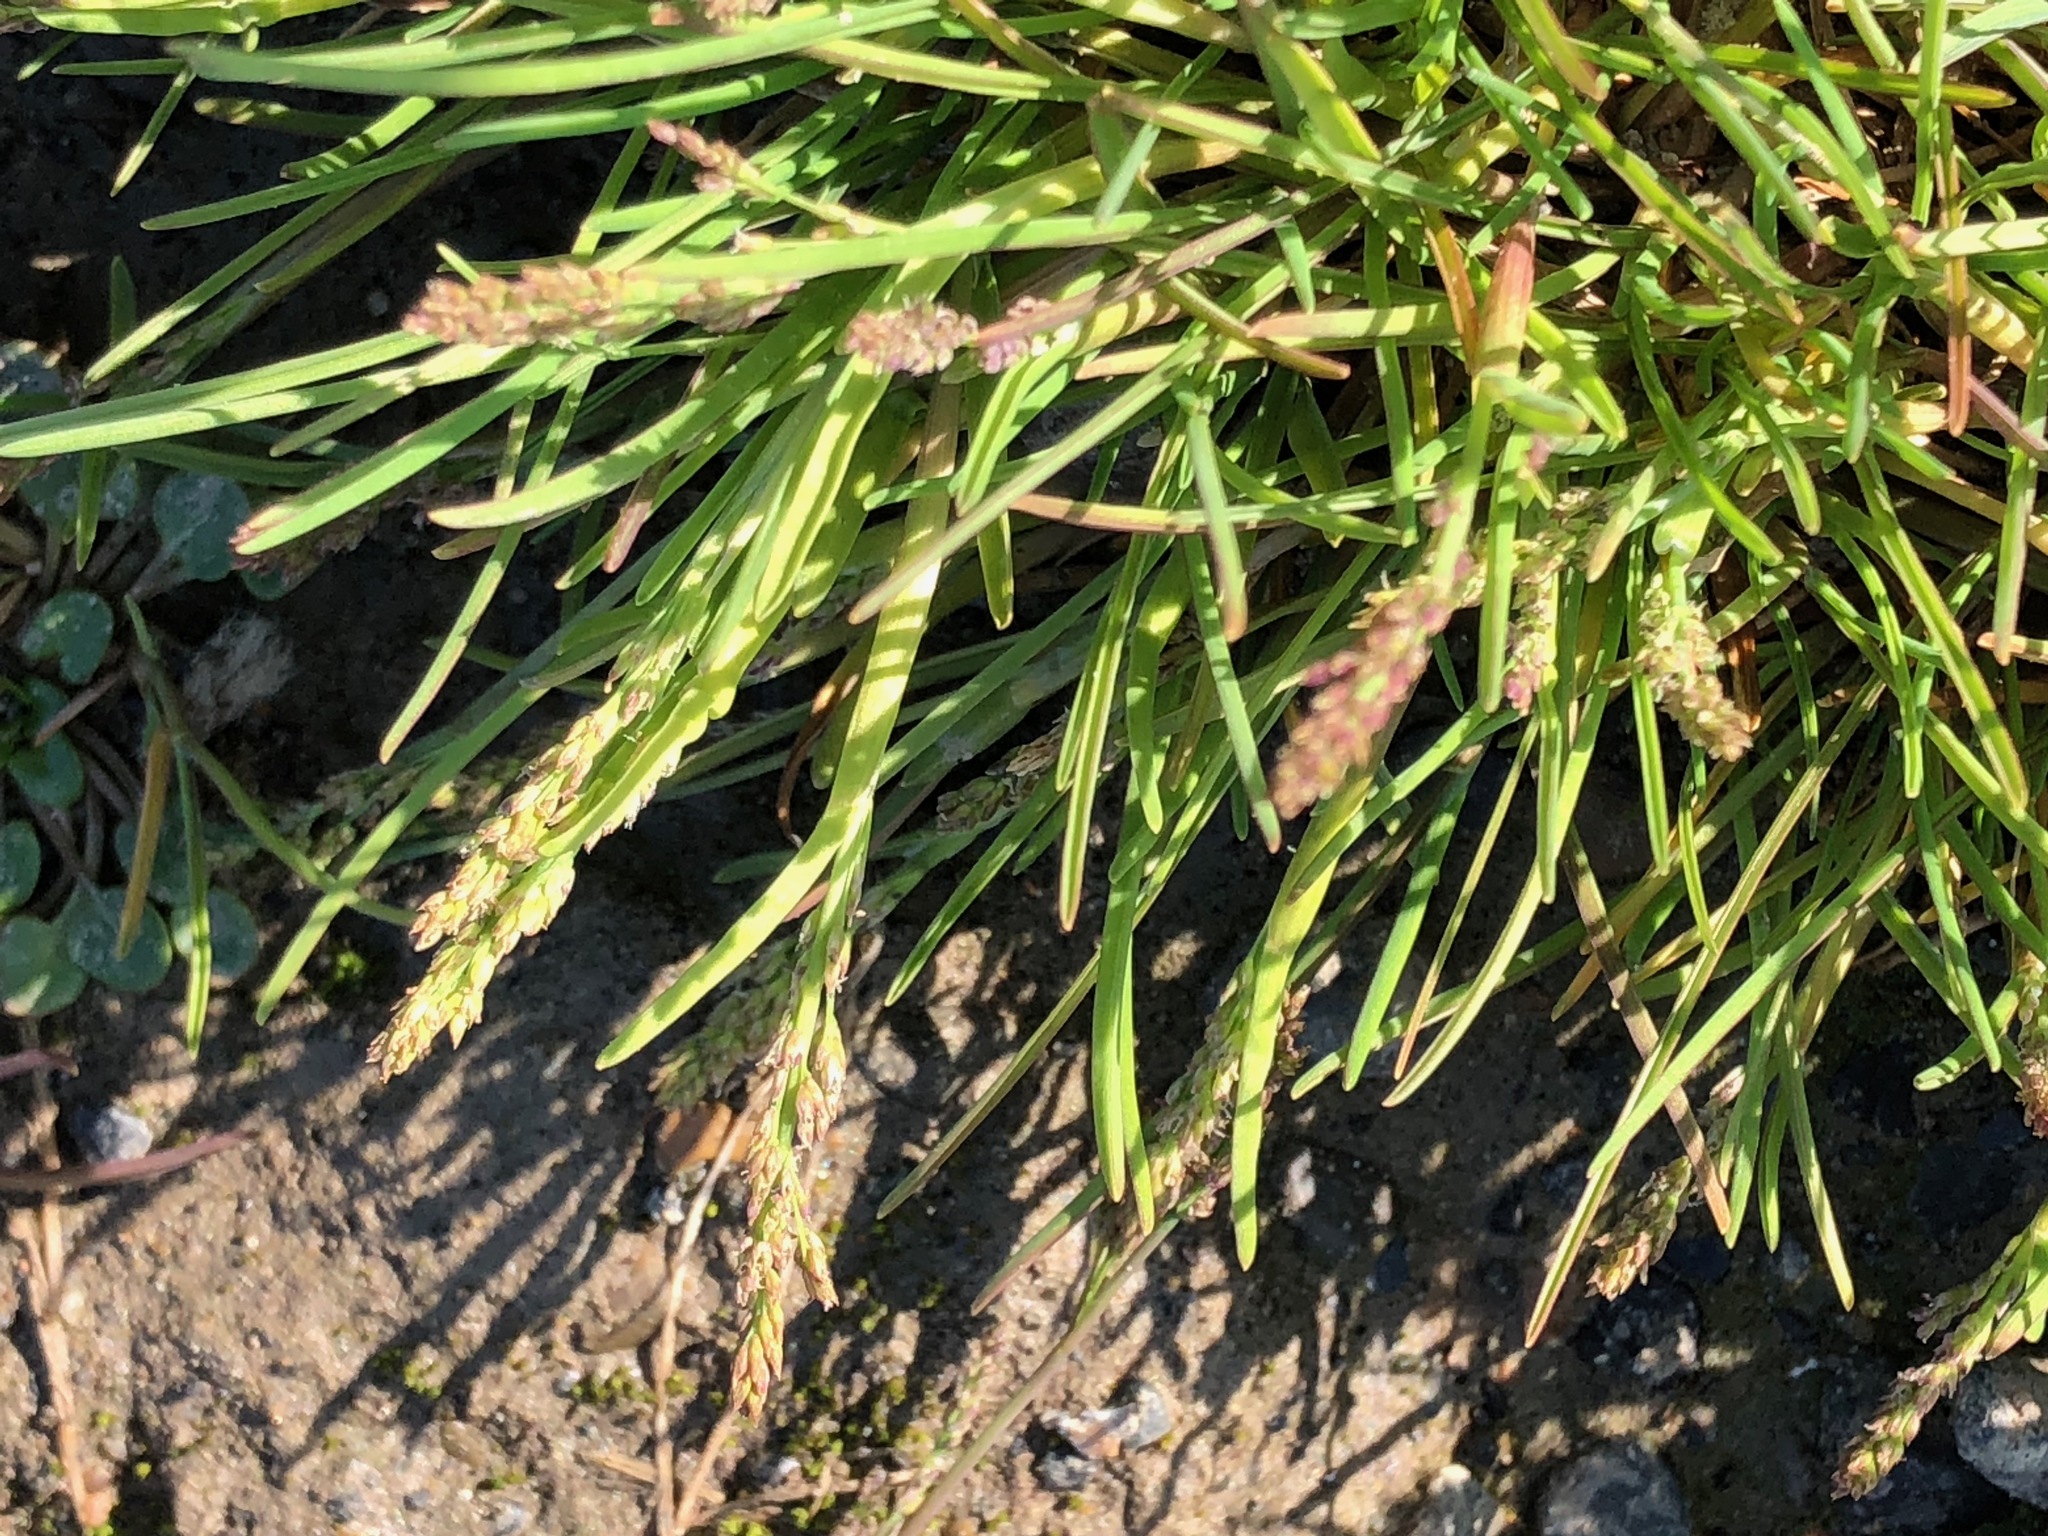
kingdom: Plantae
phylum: Tracheophyta
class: Liliopsida
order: Poales
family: Poaceae
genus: Phippsia
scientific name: Phippsia algida
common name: Ice grass
